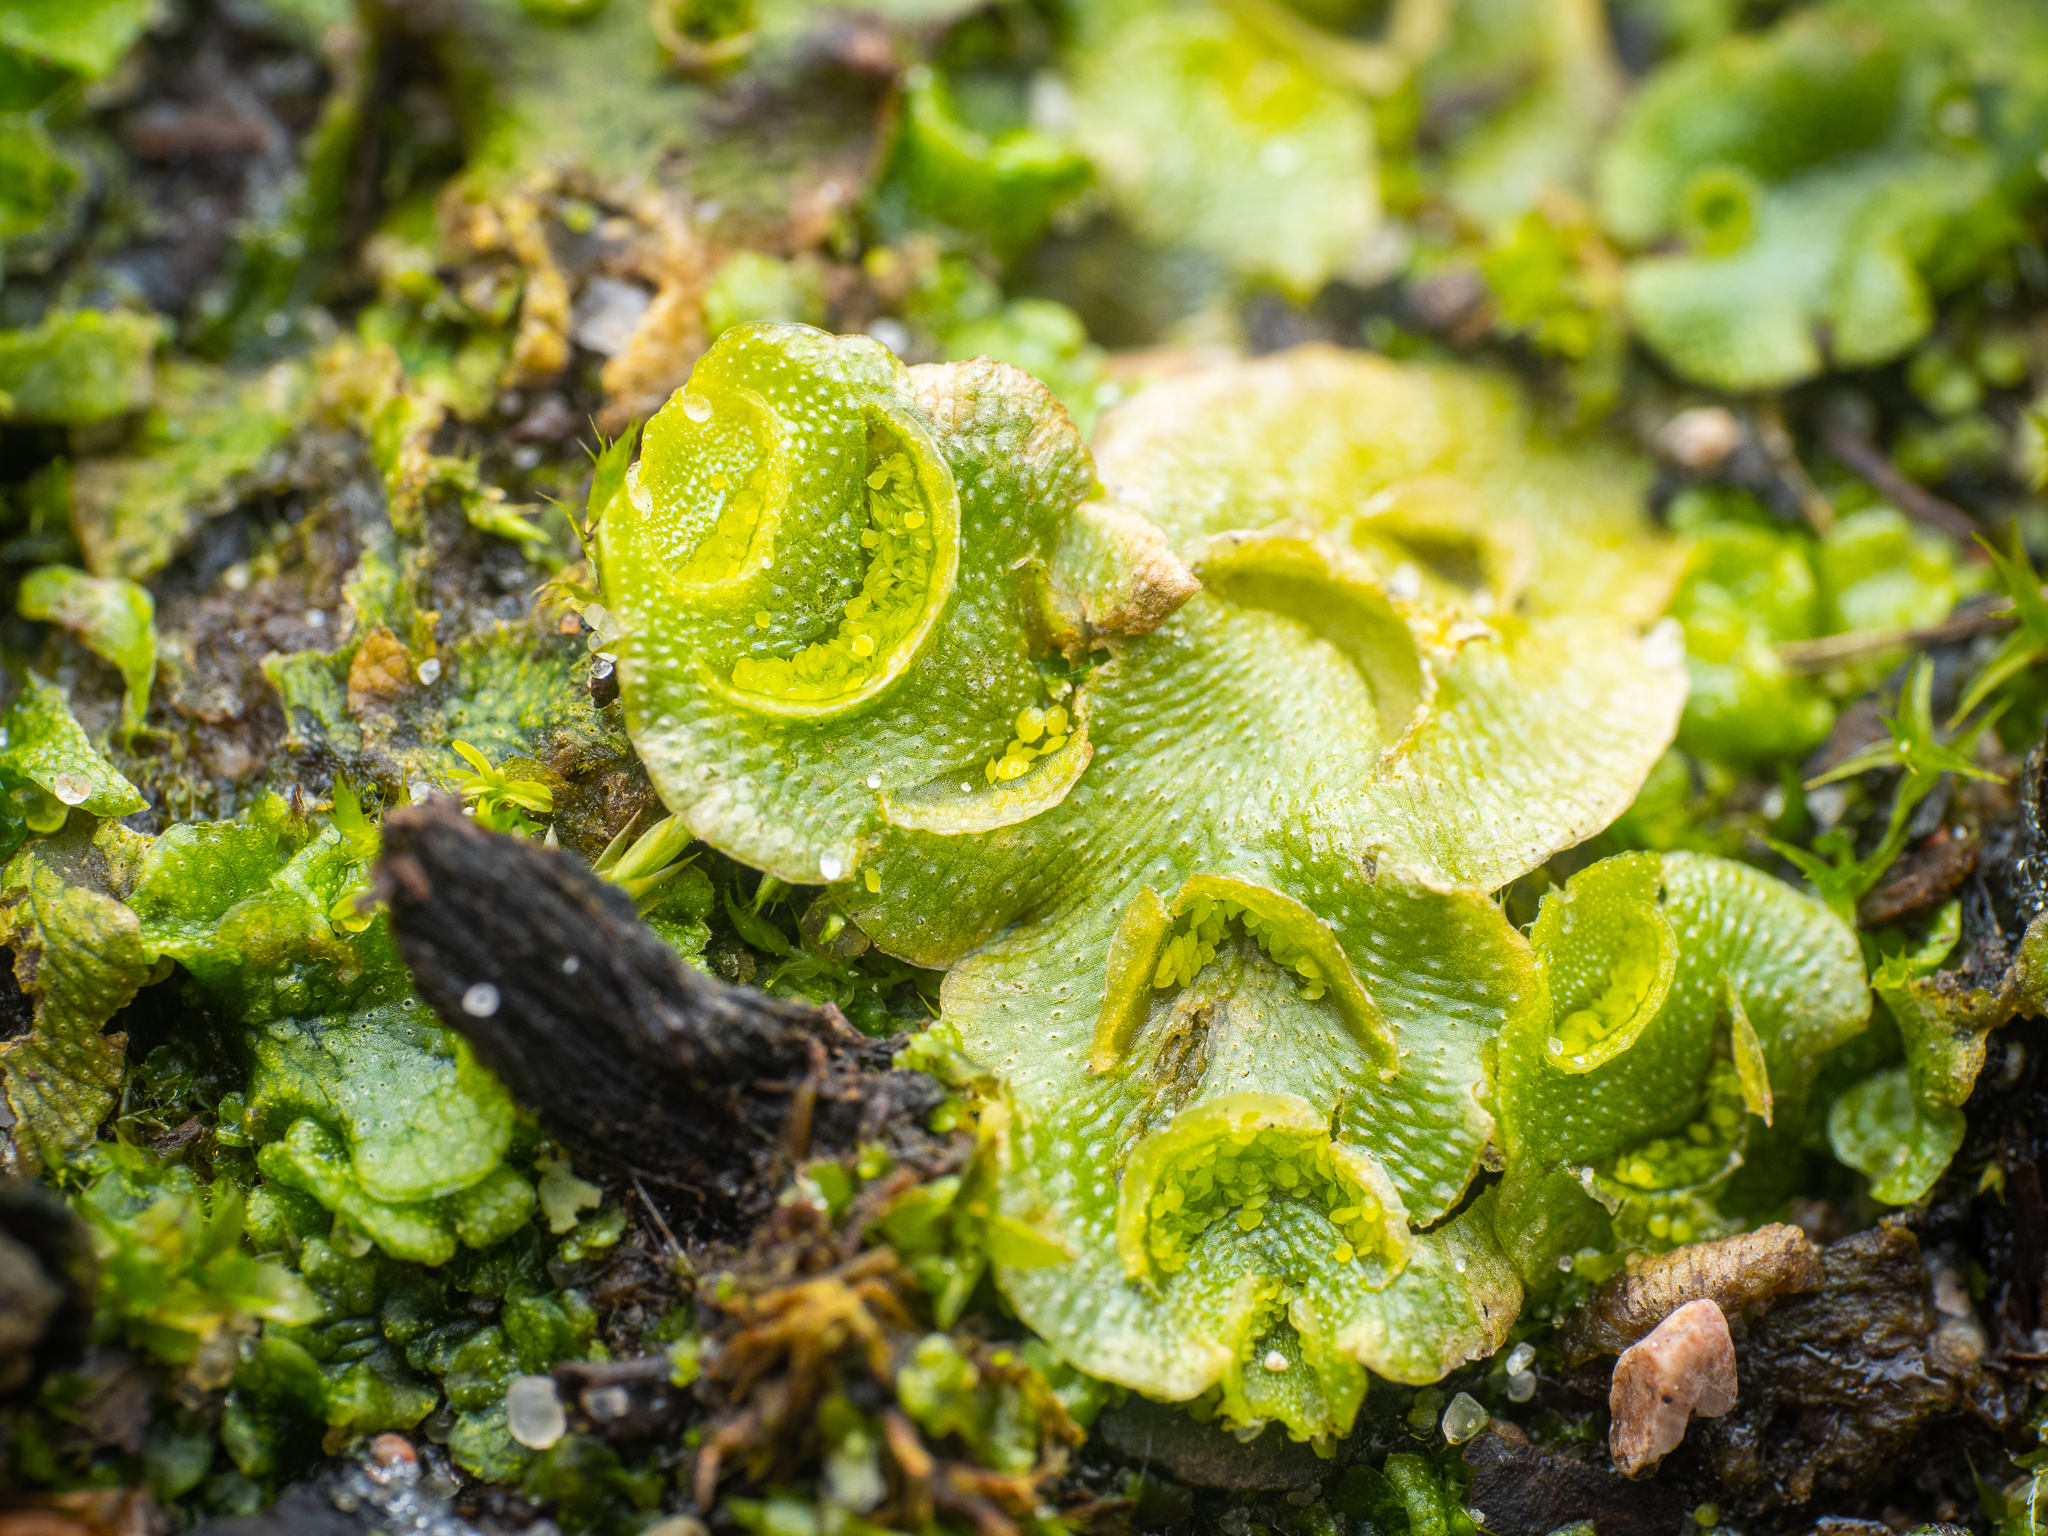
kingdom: Plantae
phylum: Marchantiophyta
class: Marchantiopsida
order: Lunulariales
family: Lunulariaceae
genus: Lunularia
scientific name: Lunularia cruciata
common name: Crescent-cup liverwort
